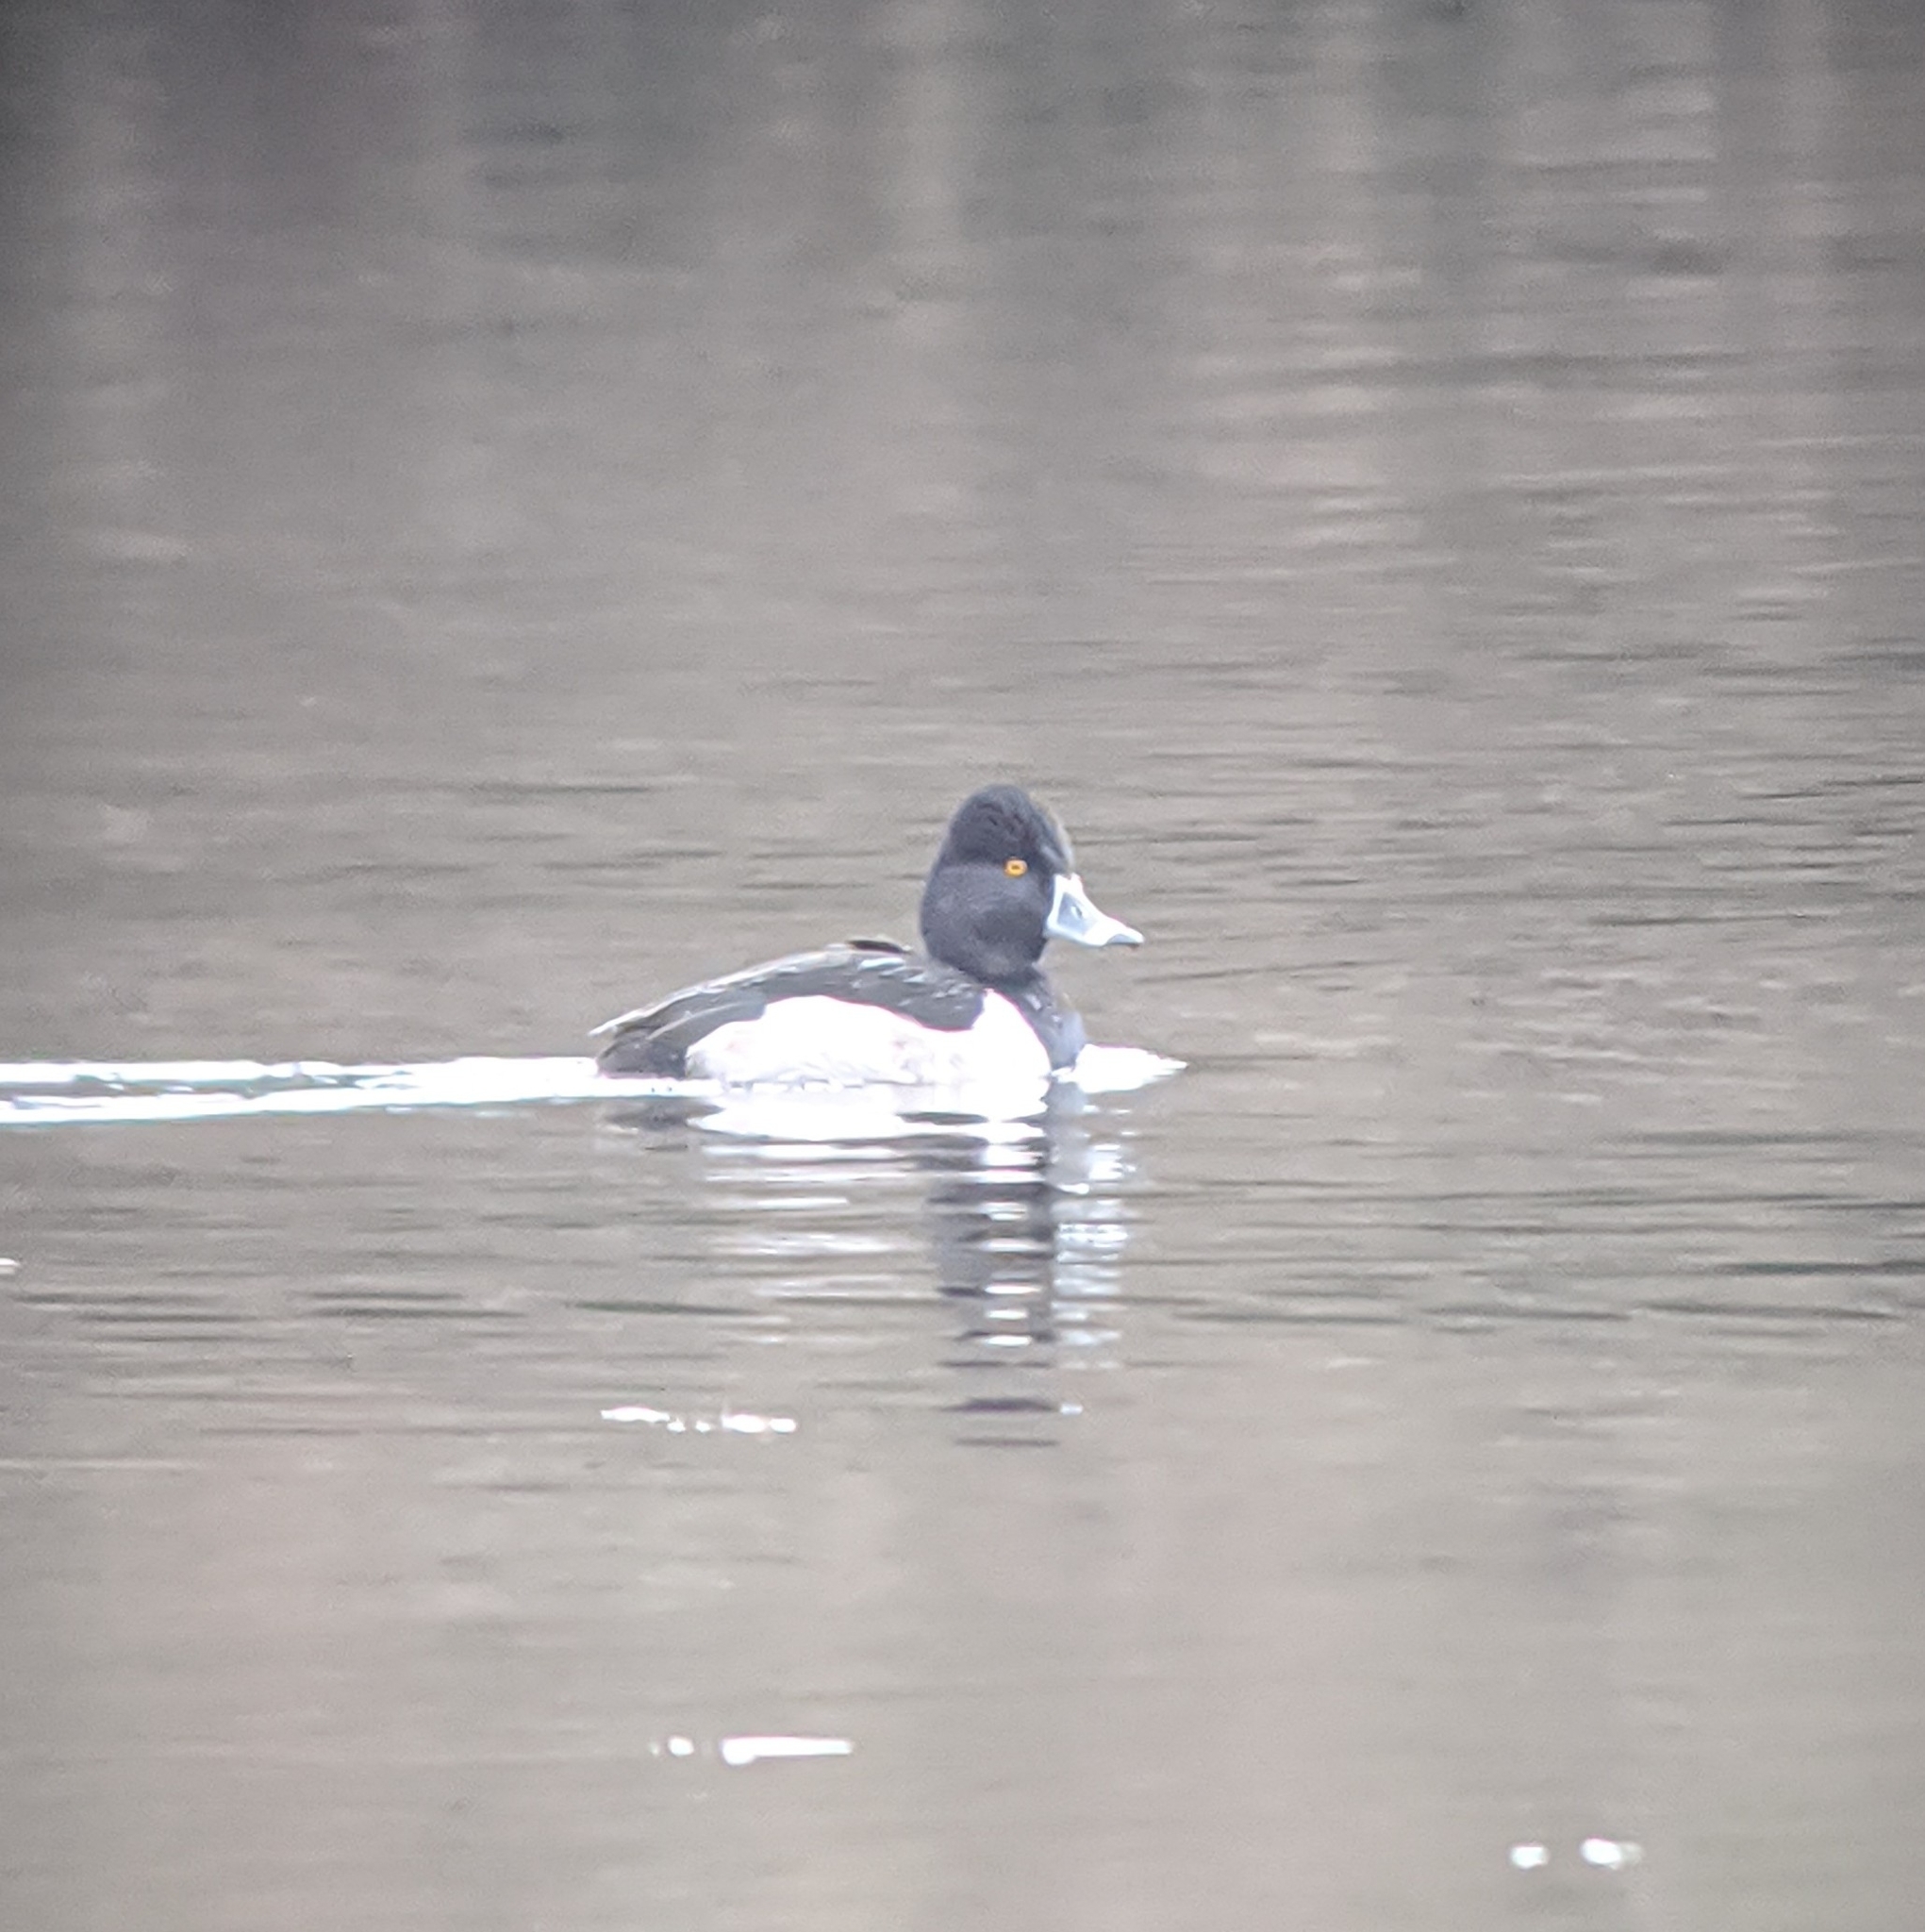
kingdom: Animalia
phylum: Chordata
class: Aves
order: Anseriformes
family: Anatidae
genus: Aythya
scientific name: Aythya collaris
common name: Ring-necked duck
